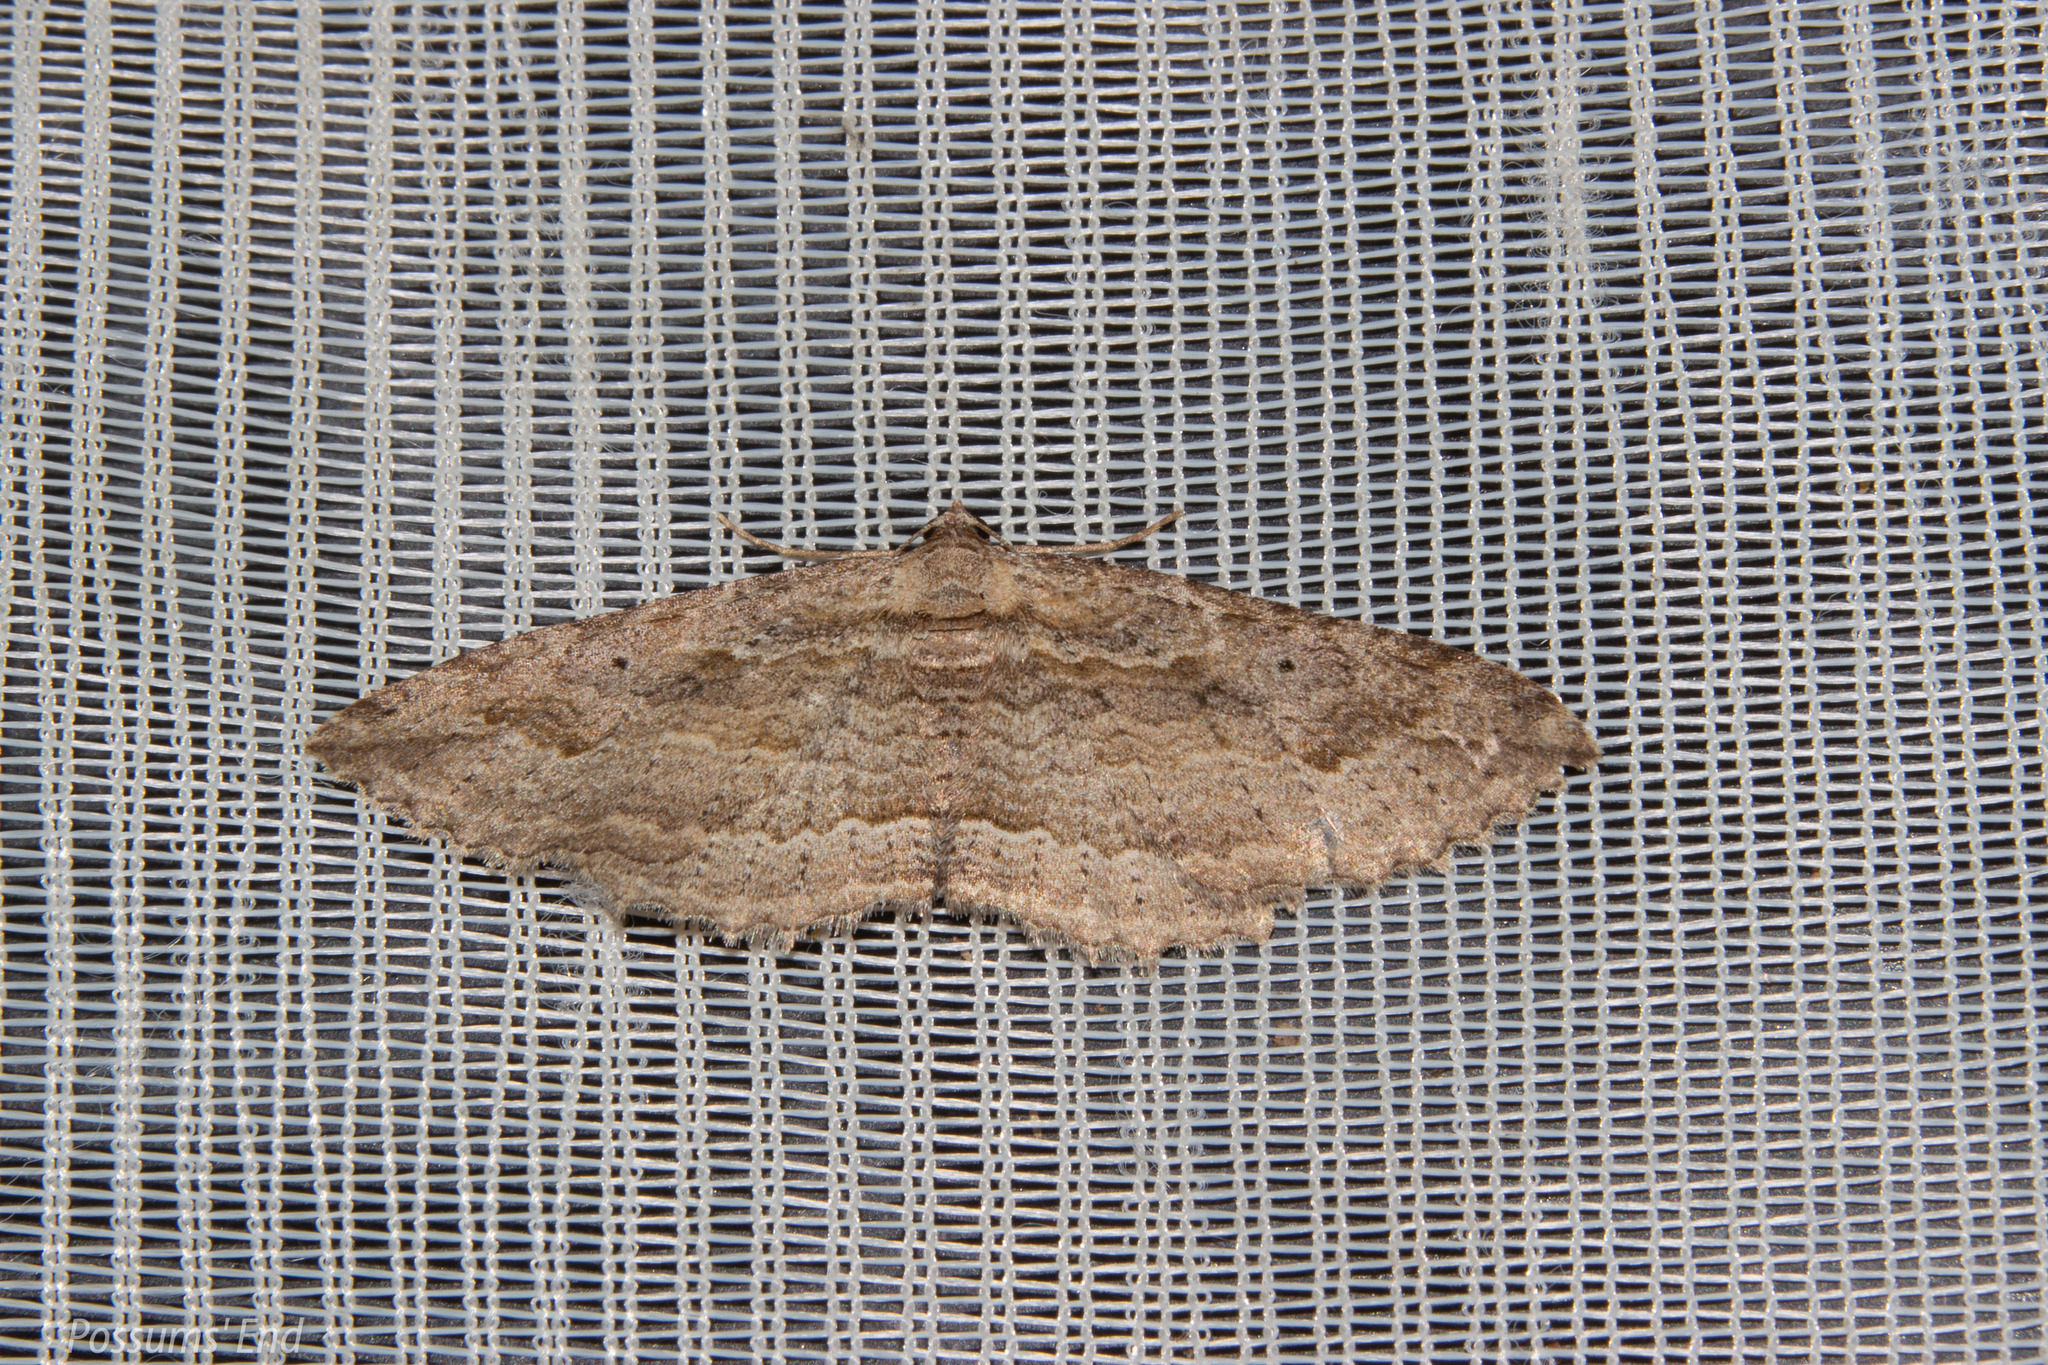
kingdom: Animalia
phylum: Arthropoda
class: Insecta
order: Lepidoptera
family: Geometridae
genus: Austrocidaria
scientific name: Austrocidaria gobiata
